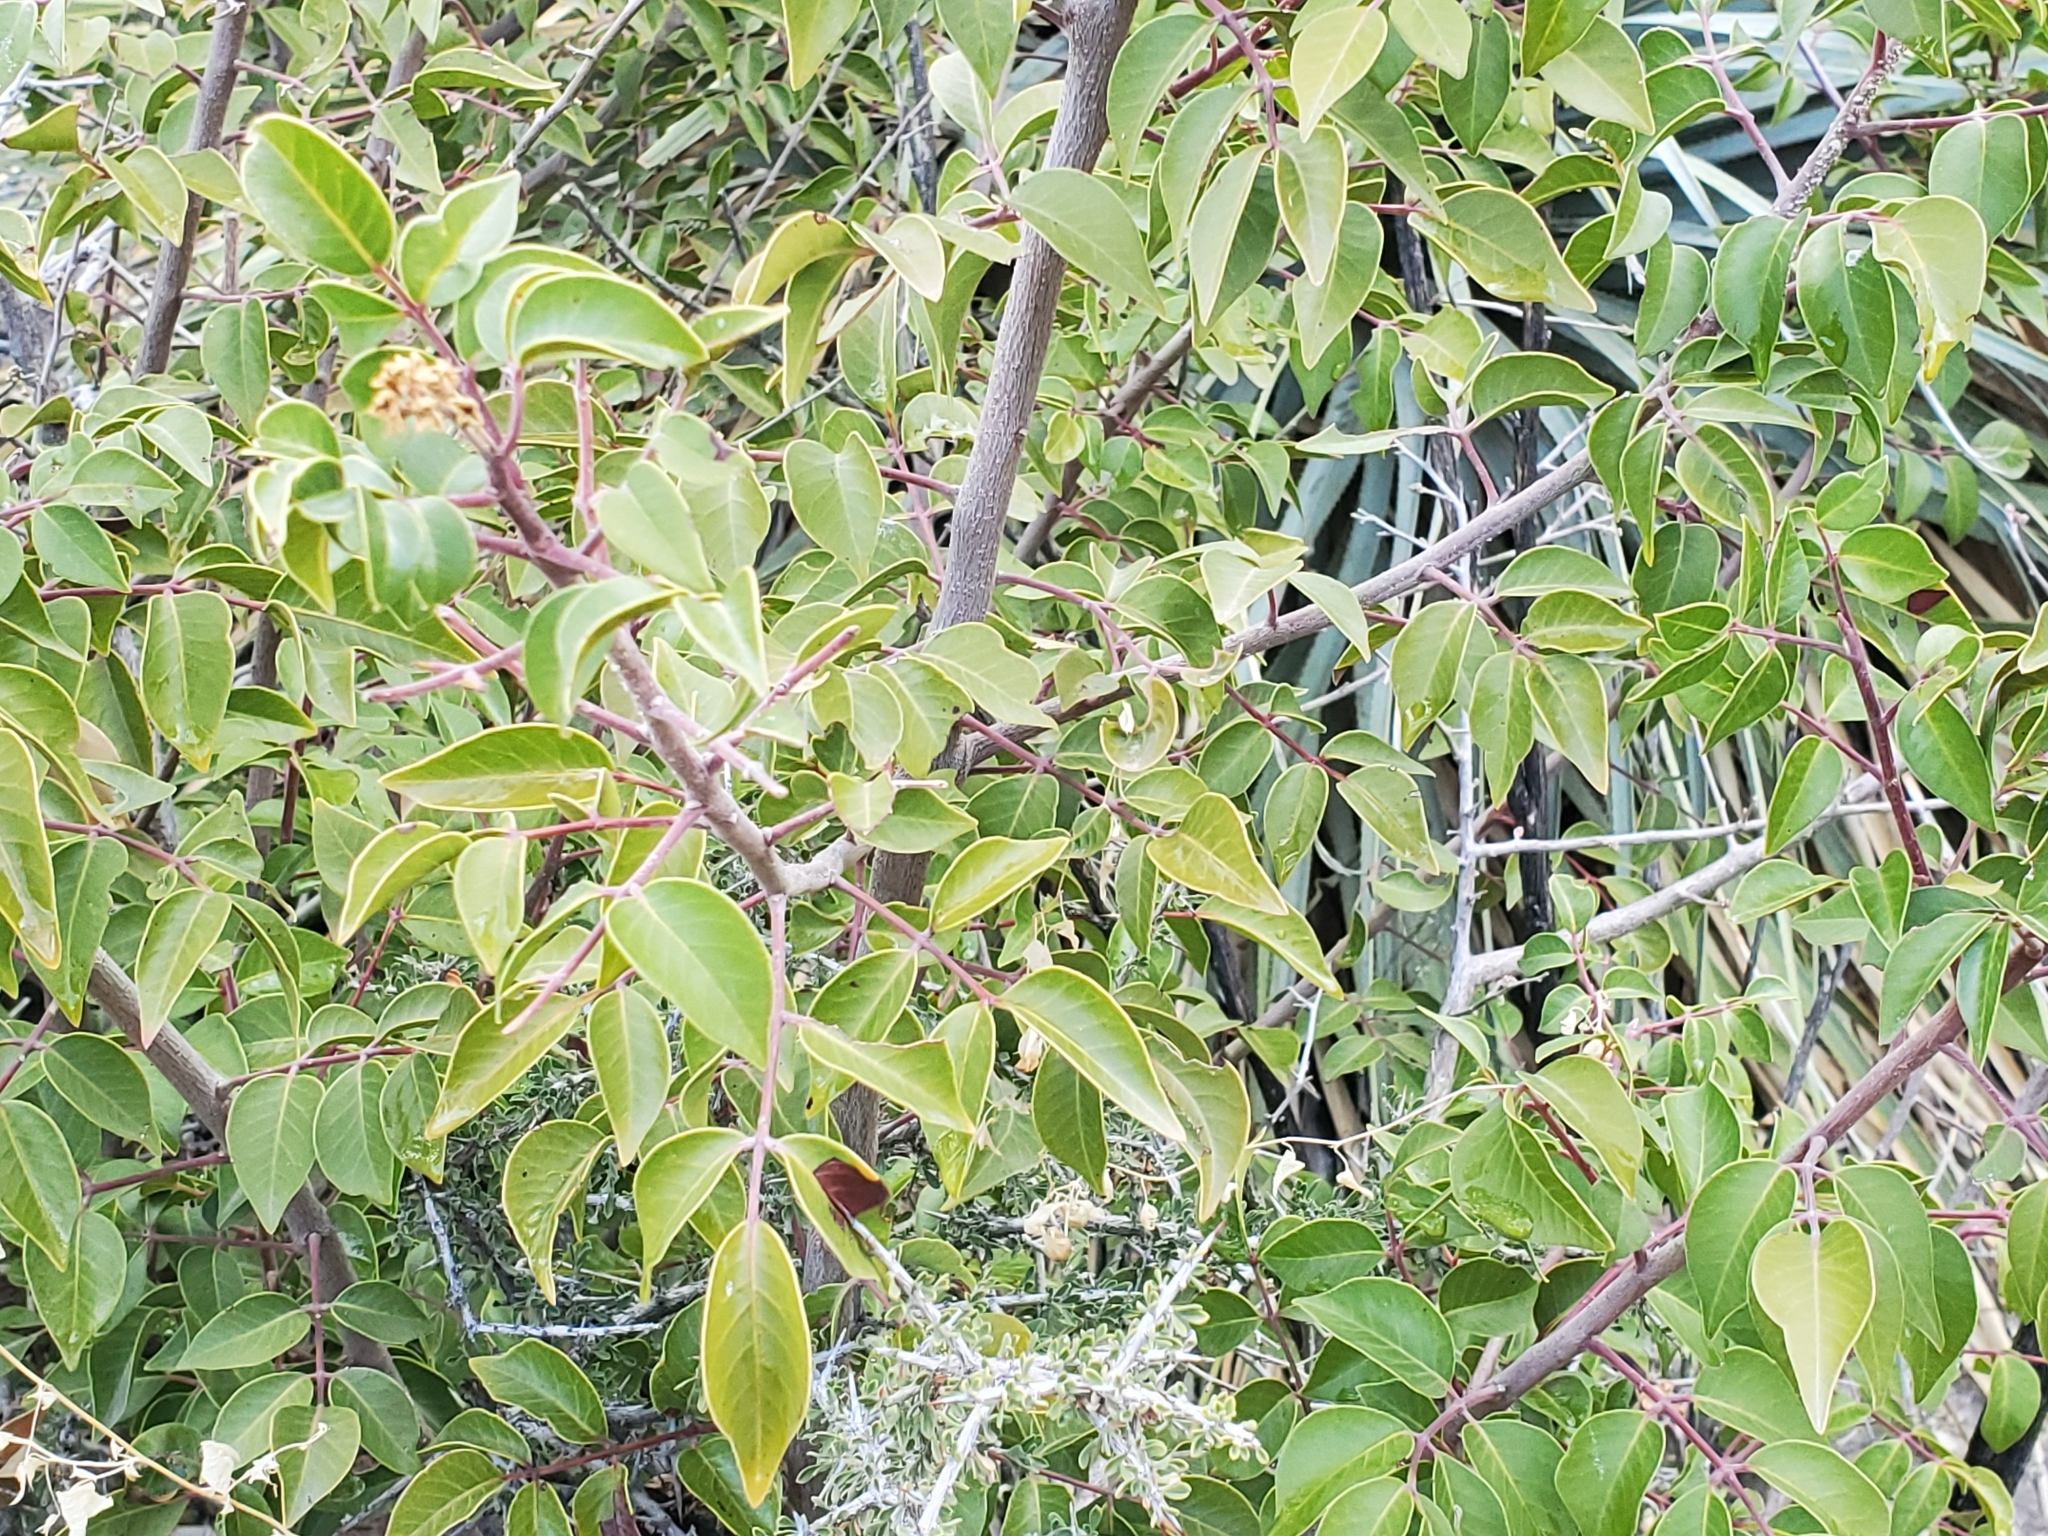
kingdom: Plantae
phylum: Tracheophyta
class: Magnoliopsida
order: Sapindales
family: Anacardiaceae
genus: Rhus
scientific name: Rhus virens
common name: Evergreen sumac
